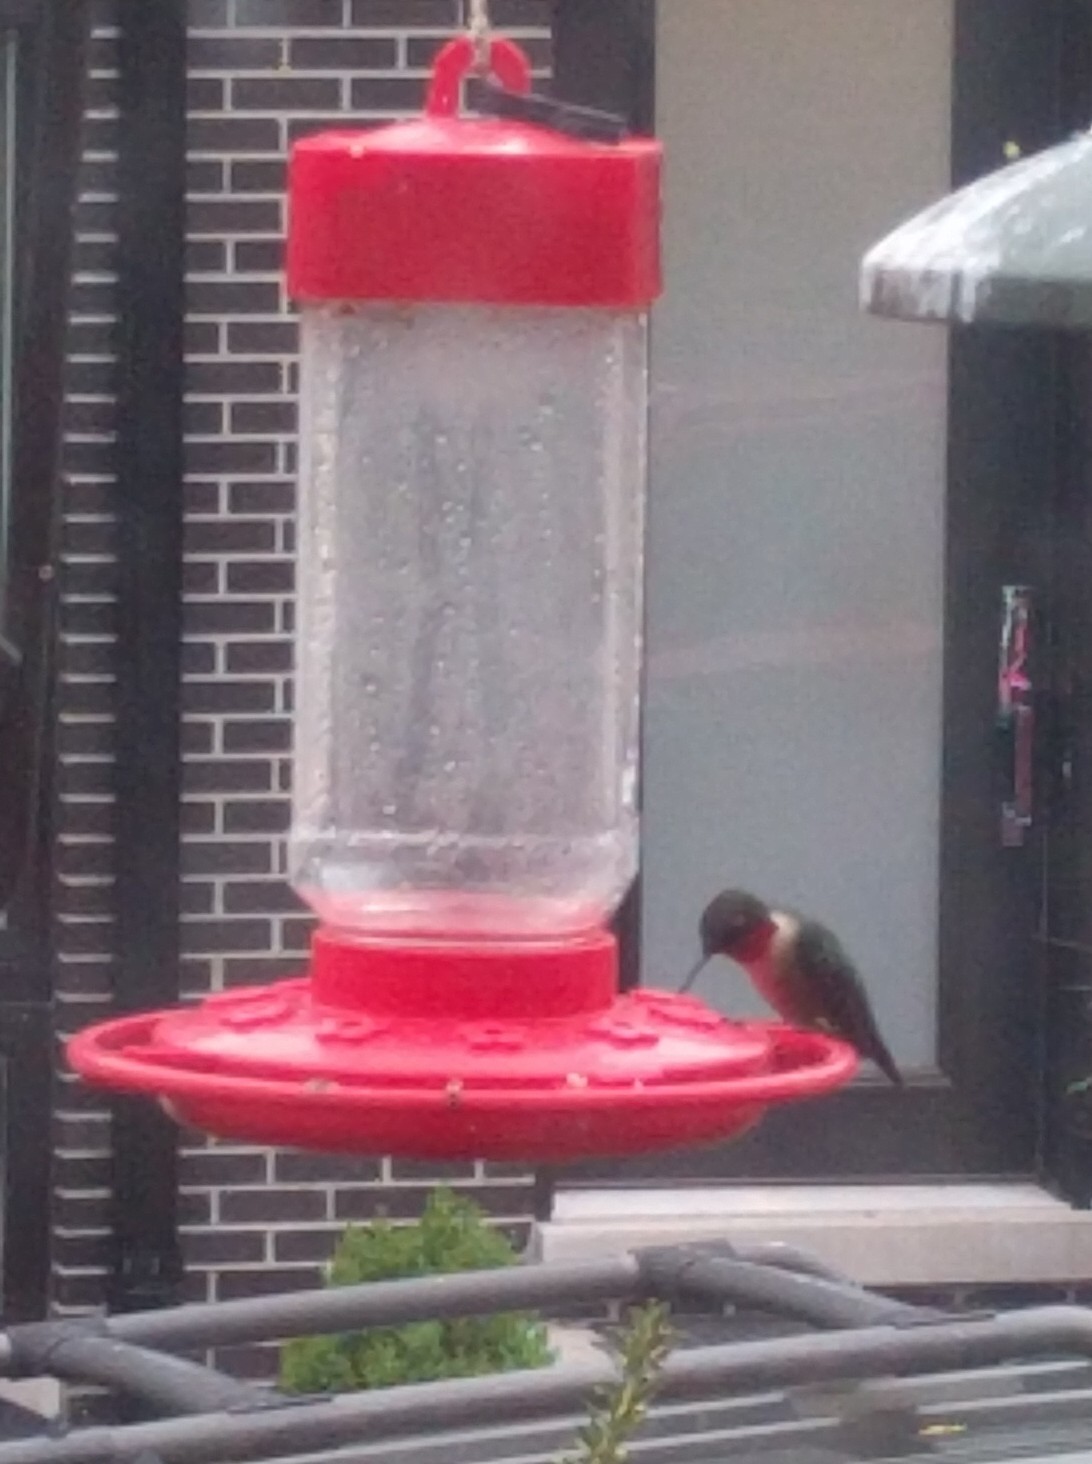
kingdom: Animalia
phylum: Chordata
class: Aves
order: Apodiformes
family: Trochilidae
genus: Archilochus
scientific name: Archilochus colubris
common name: Ruby-throated hummingbird
